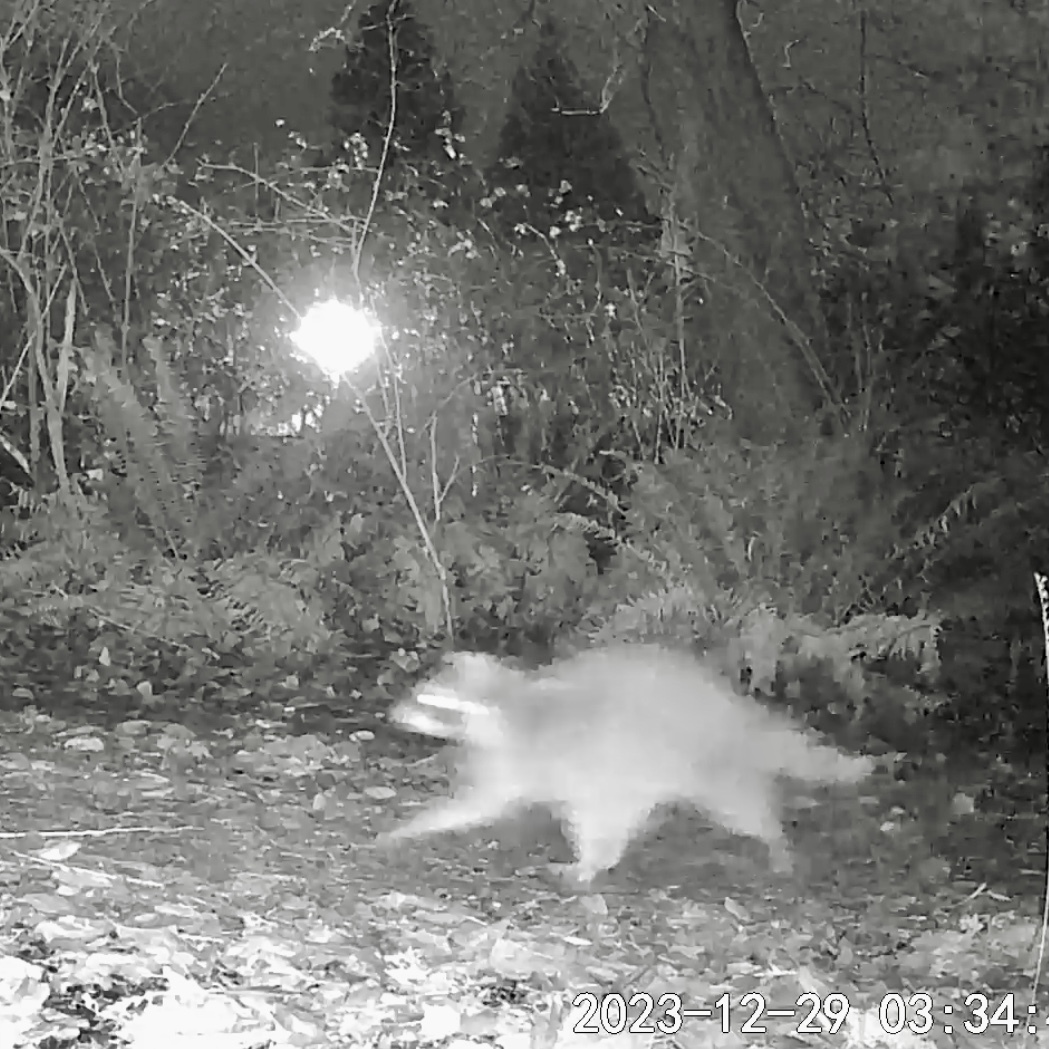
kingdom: Animalia
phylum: Chordata
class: Mammalia
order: Carnivora
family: Procyonidae
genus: Procyon
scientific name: Procyon lotor
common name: Raccoon
